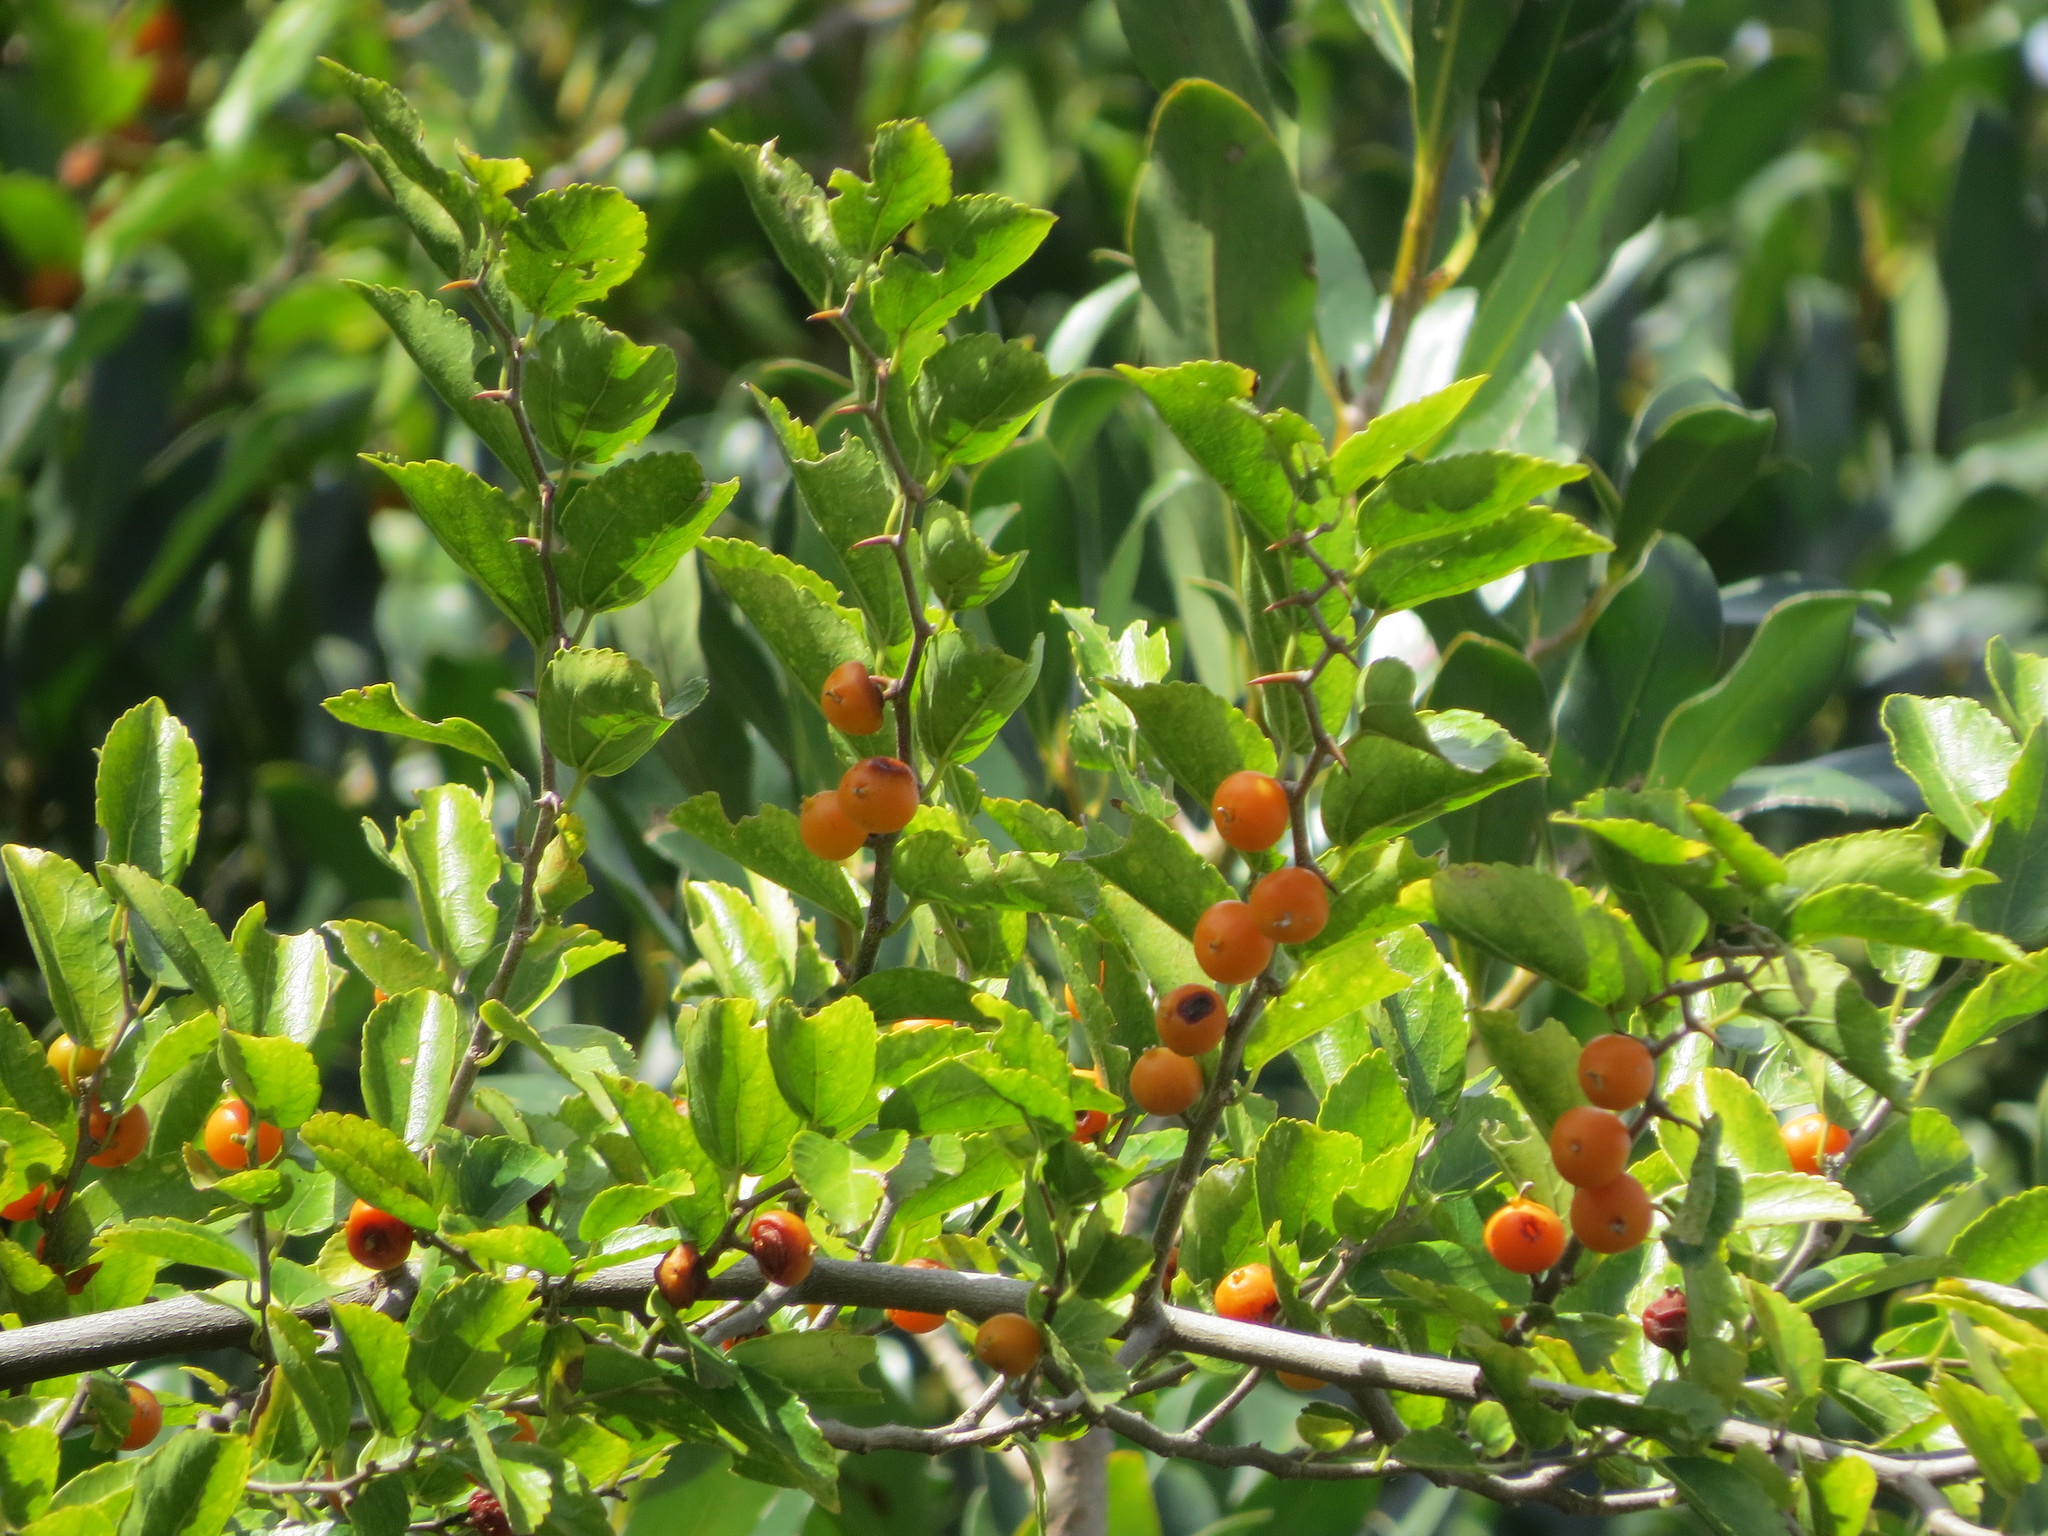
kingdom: Plantae
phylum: Tracheophyta
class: Magnoliopsida
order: Rosales
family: Cannabaceae
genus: Celtis
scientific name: Celtis iguanaea
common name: Iguana hackberry
